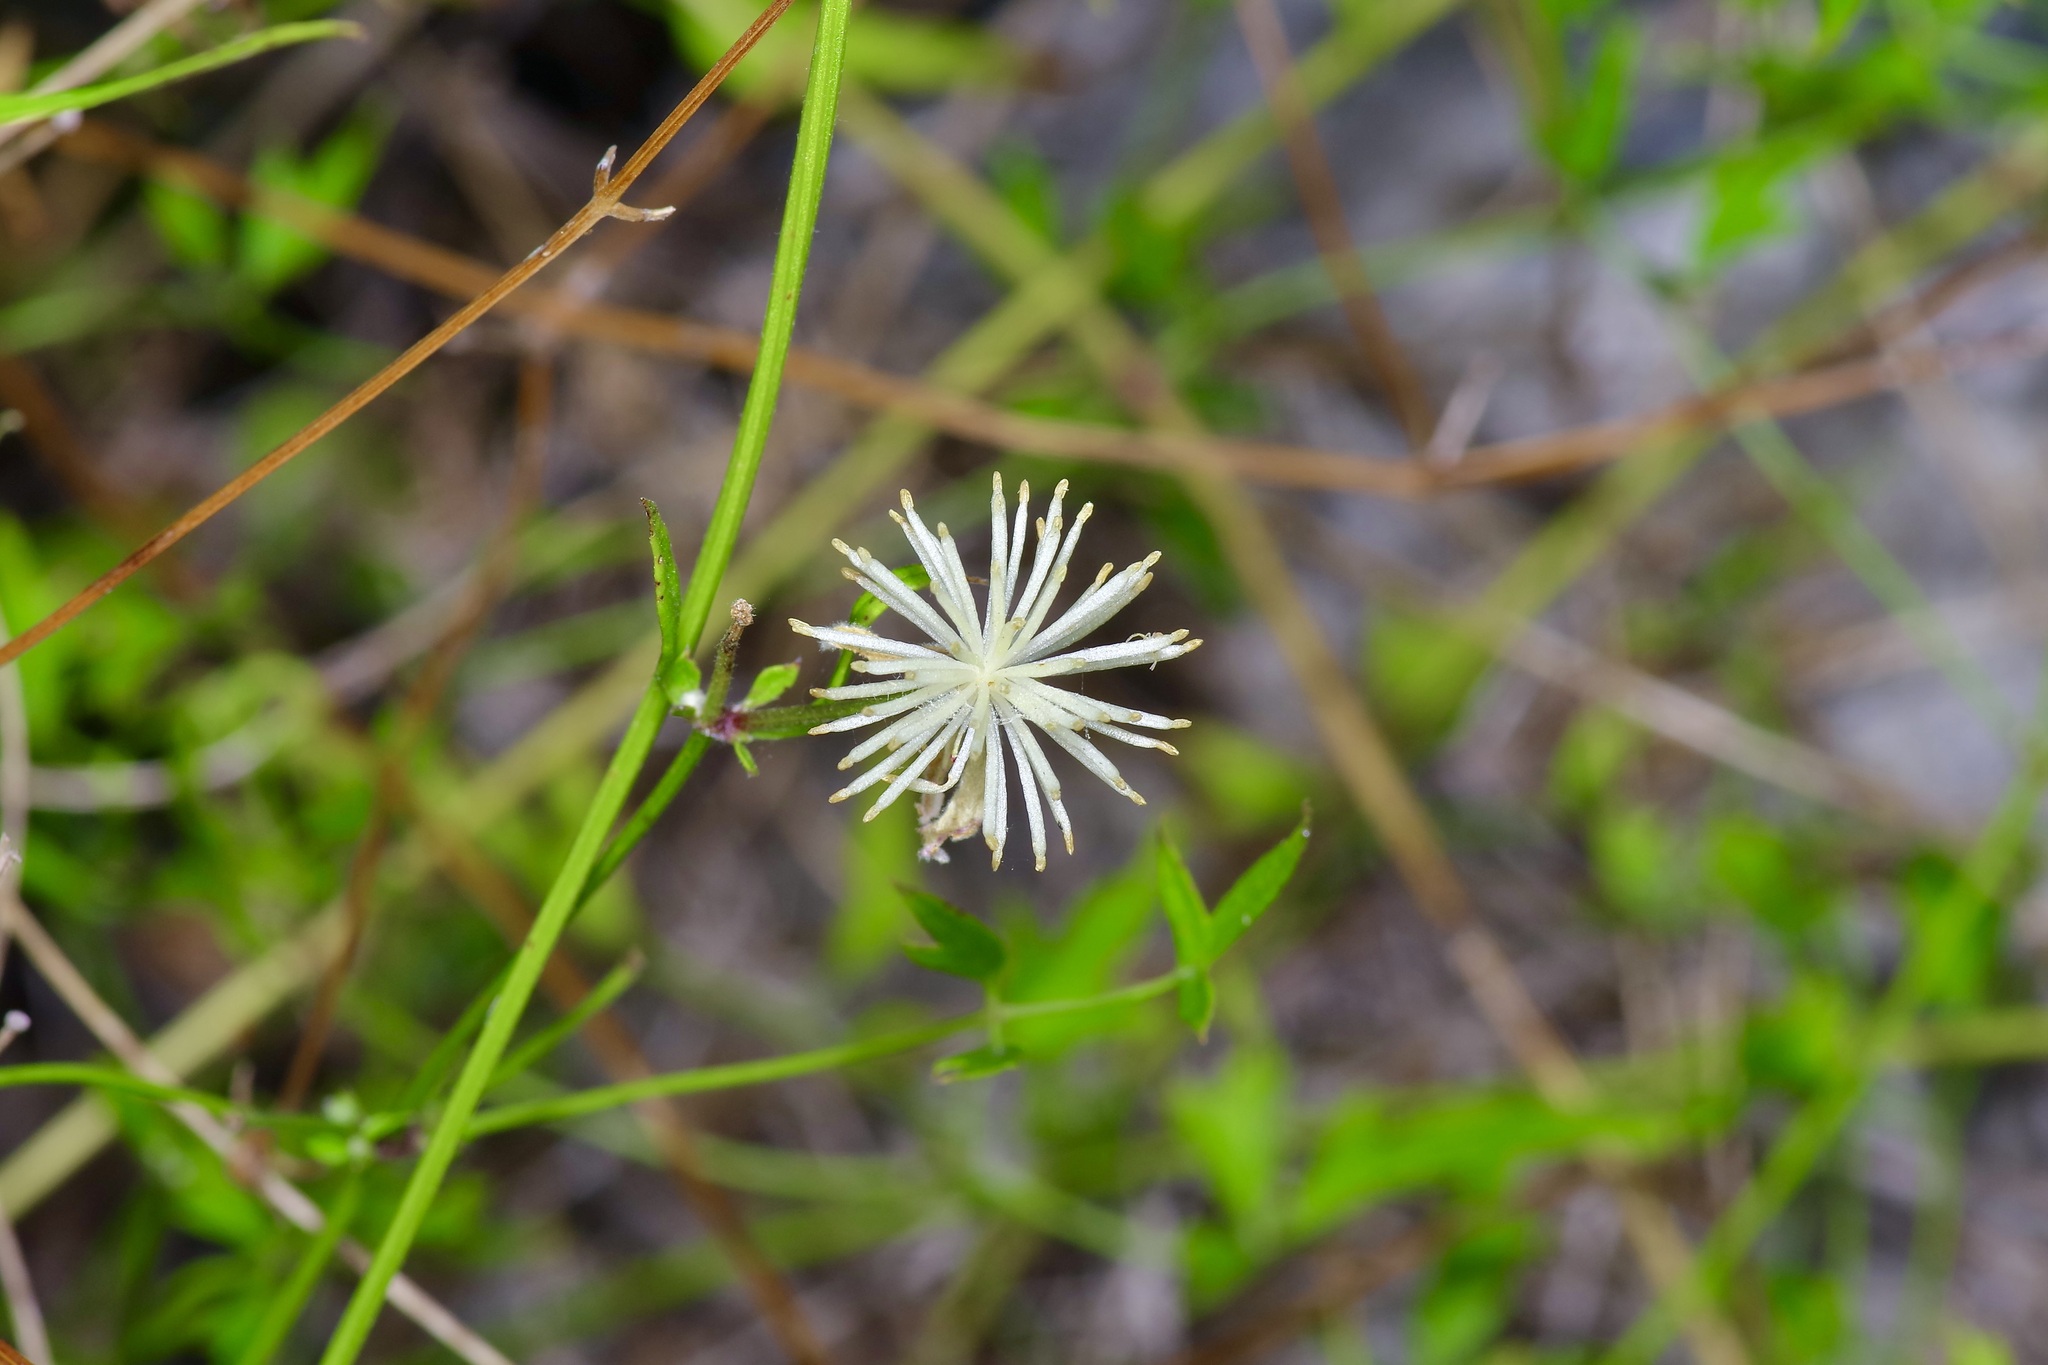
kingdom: Plantae
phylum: Tracheophyta
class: Magnoliopsida
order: Ranunculales
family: Ranunculaceae
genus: Clematis
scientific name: Clematis drummondii
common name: Texas virgin's bower
